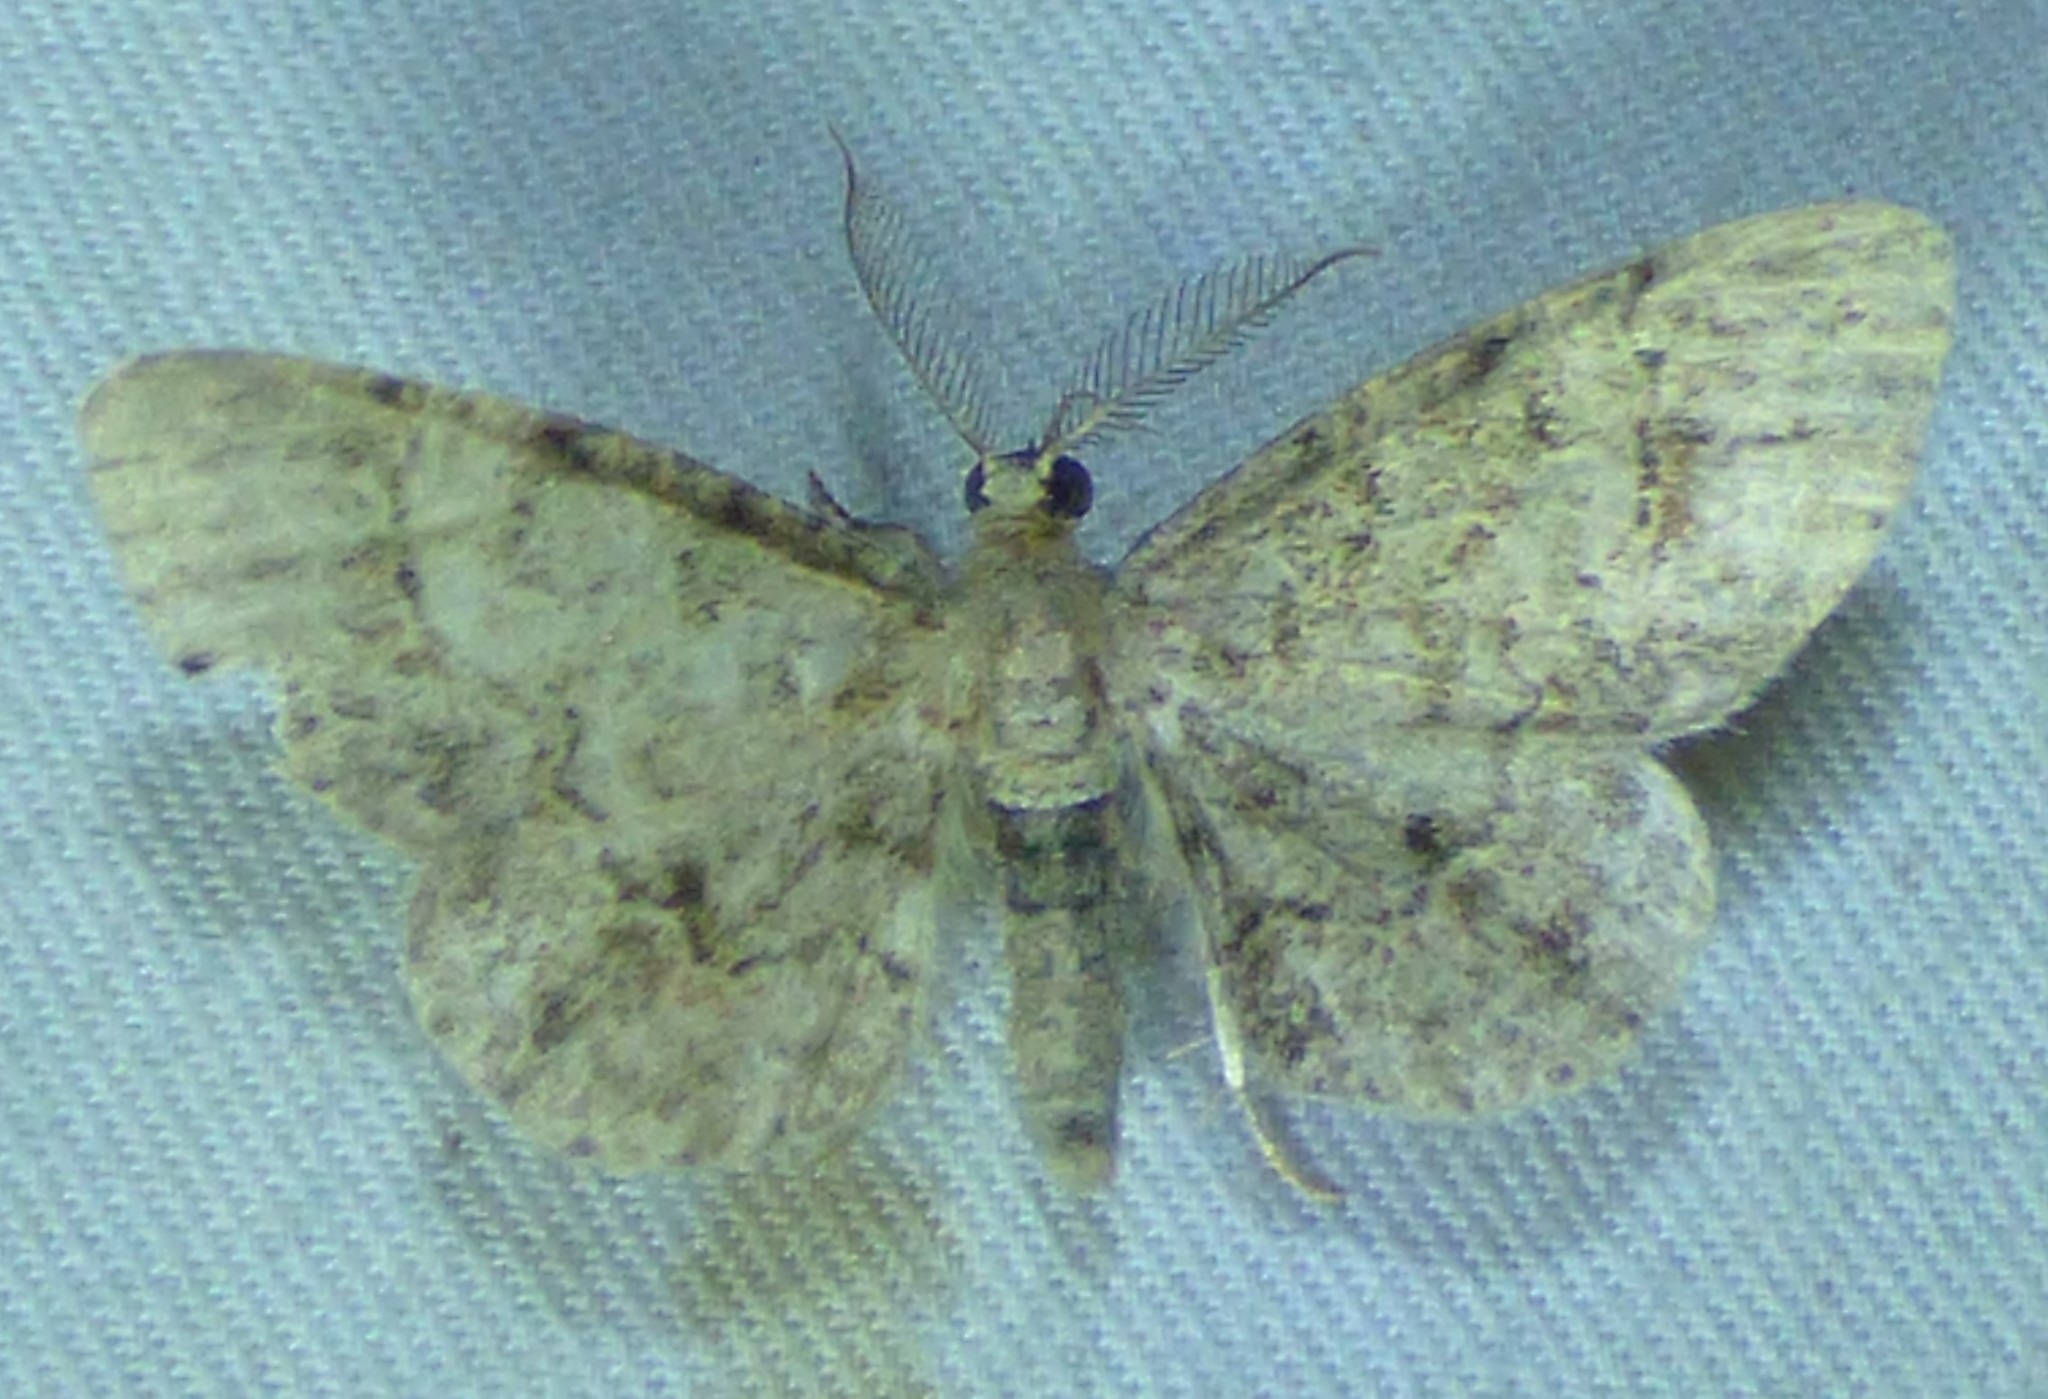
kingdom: Animalia
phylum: Arthropoda
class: Insecta
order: Lepidoptera
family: Geometridae
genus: Glenoides
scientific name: Glenoides texanaria
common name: Texas gray
